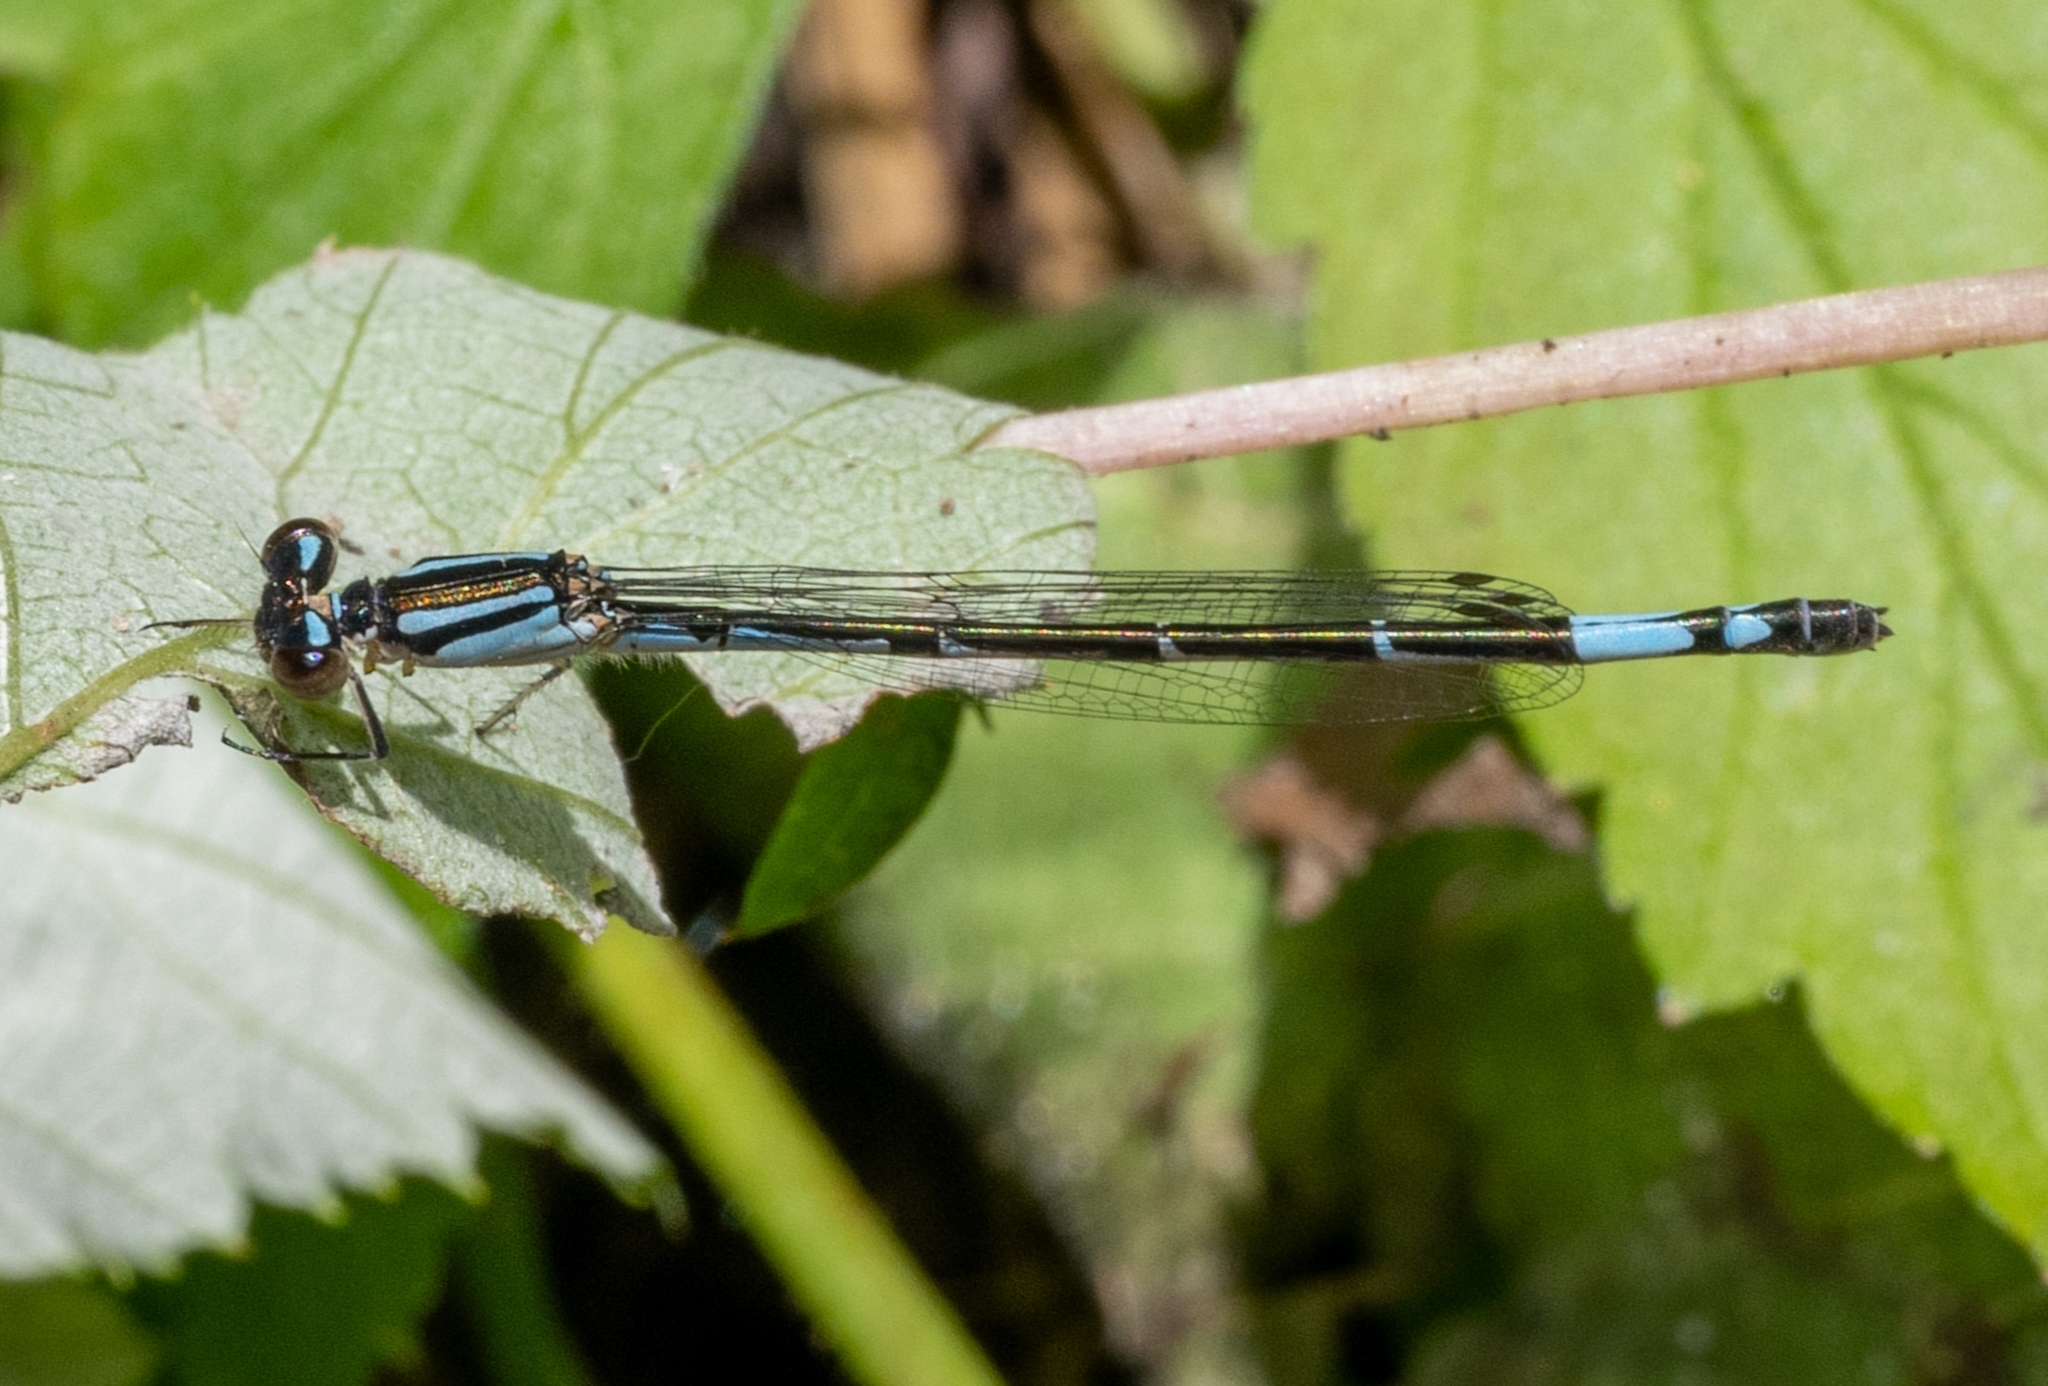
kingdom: Animalia
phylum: Arthropoda
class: Insecta
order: Odonata
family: Coenagrionidae
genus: Enallagma
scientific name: Enallagma aspersum
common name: Azure bluet
